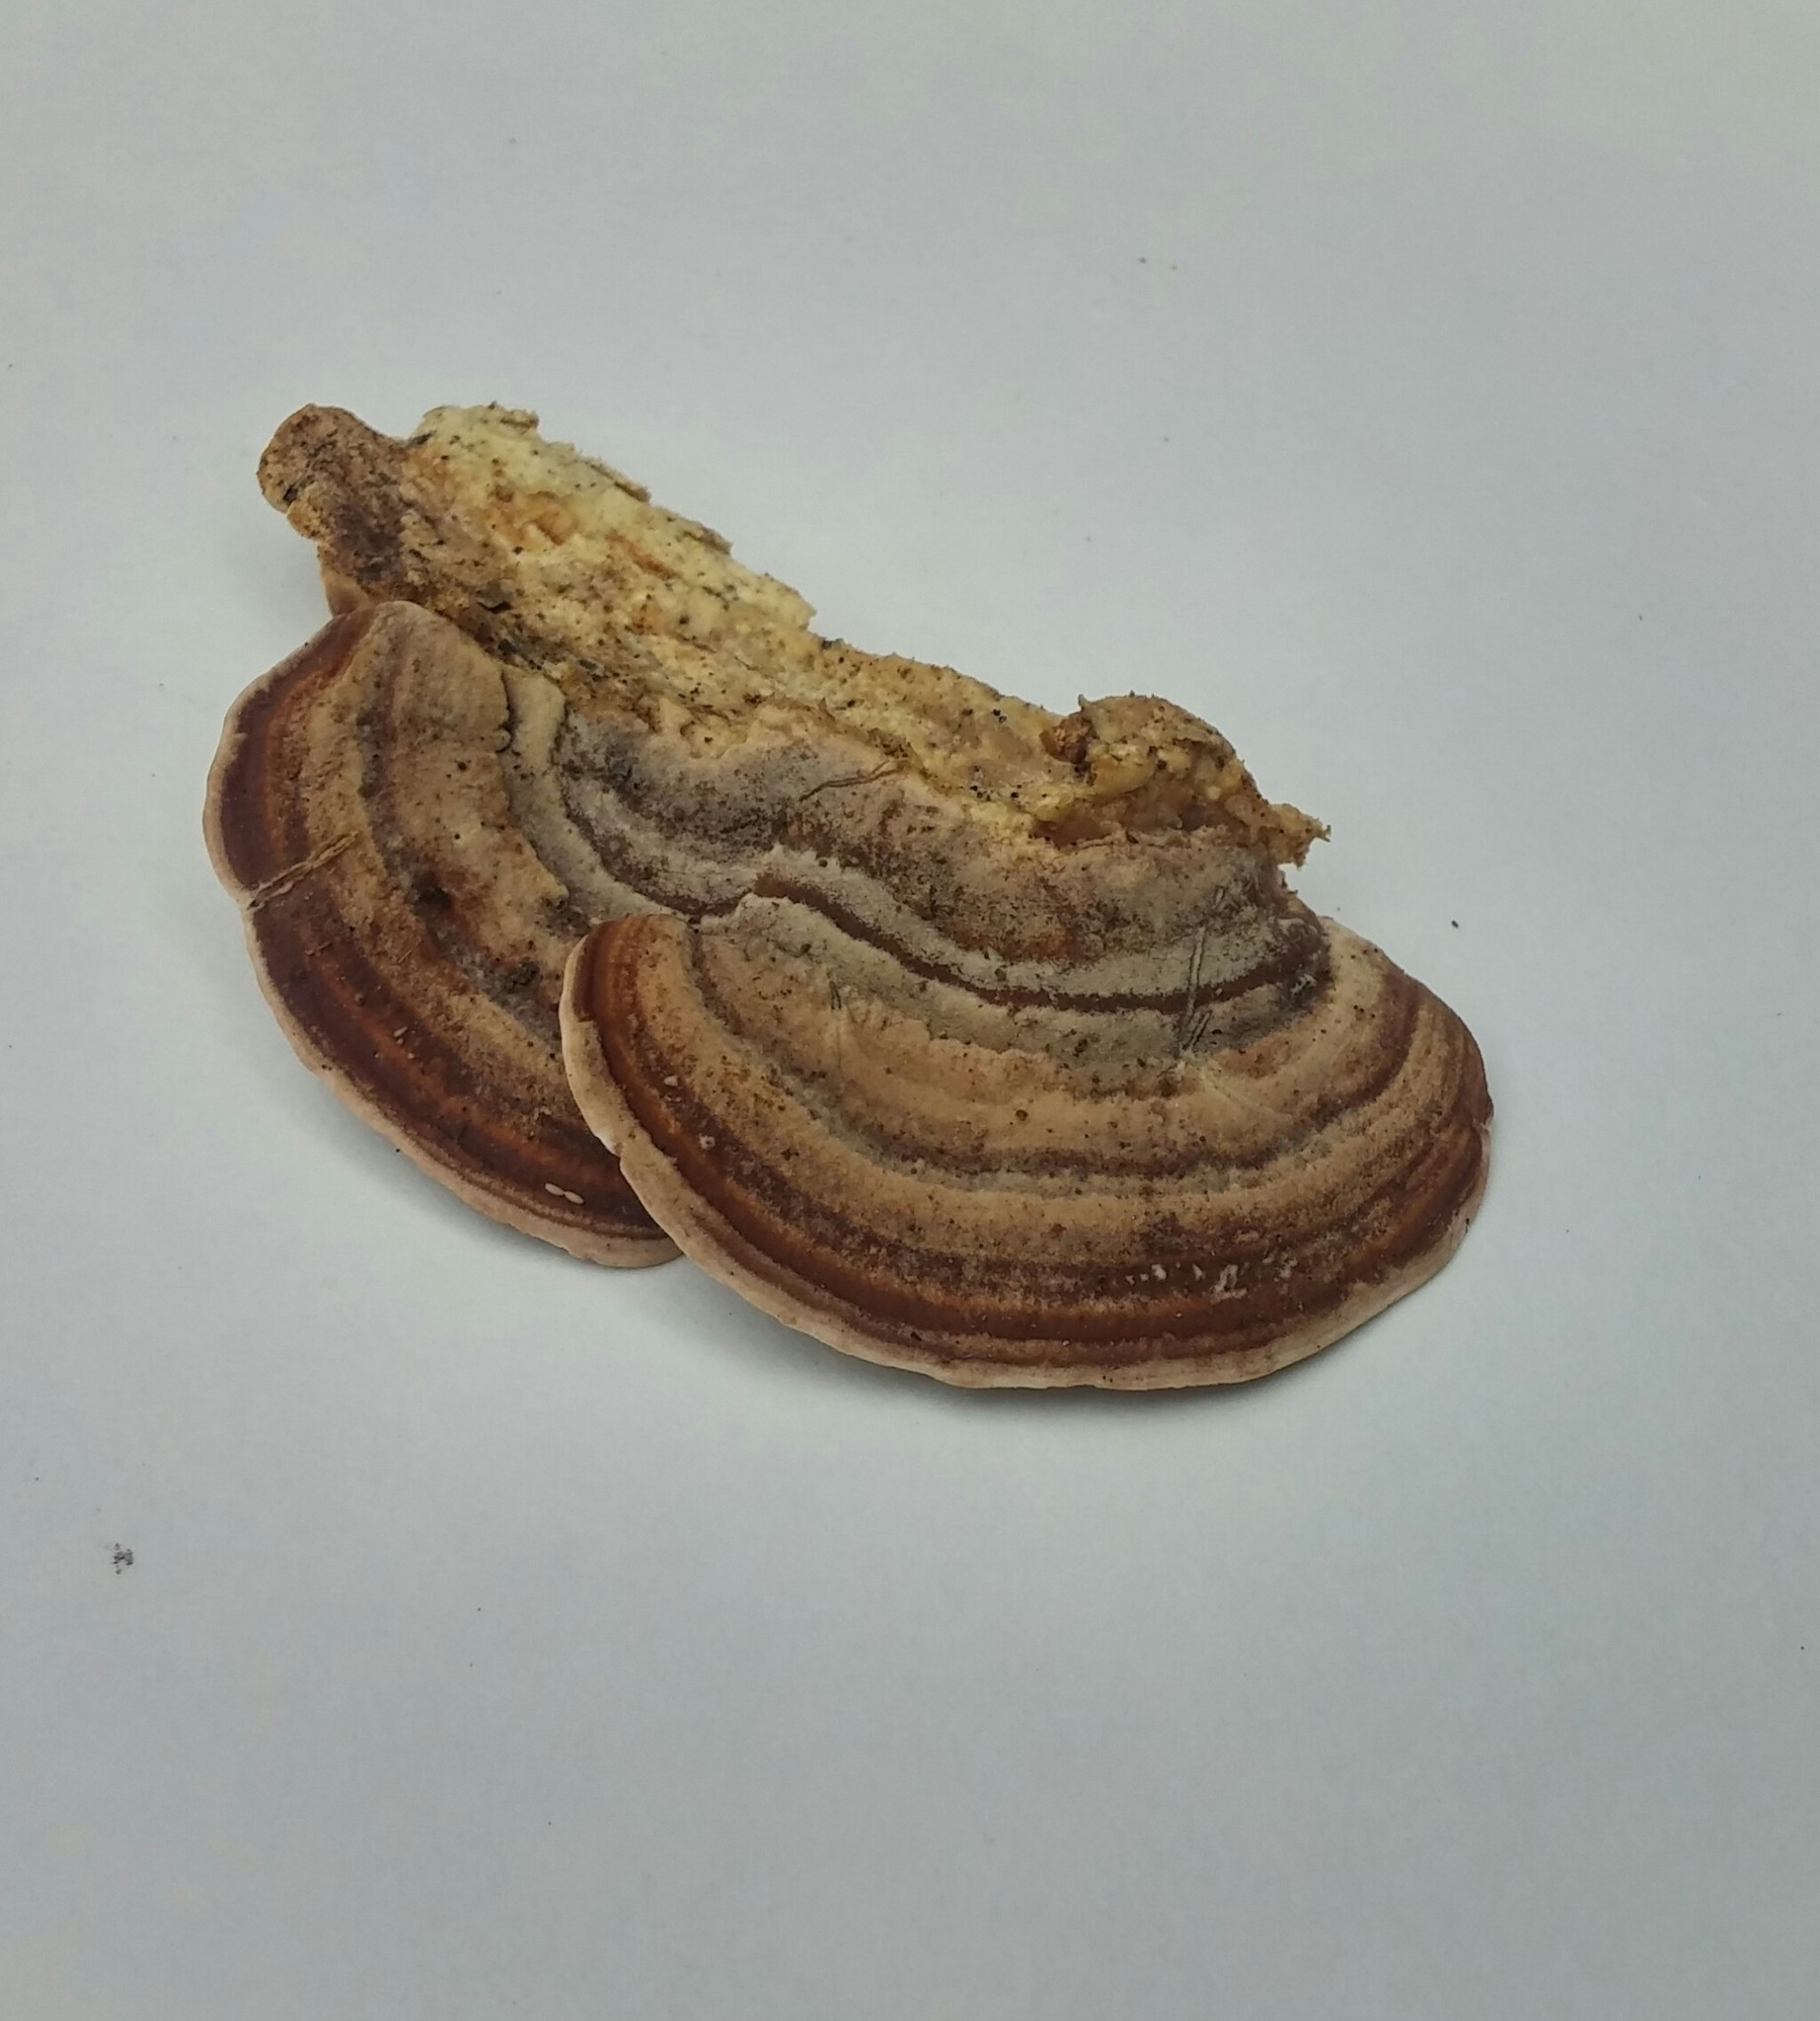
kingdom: Fungi
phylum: Basidiomycota
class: Agaricomycetes
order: Polyporales
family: Steccherinaceae
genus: Metuloidea
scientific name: Metuloidea fragrans
